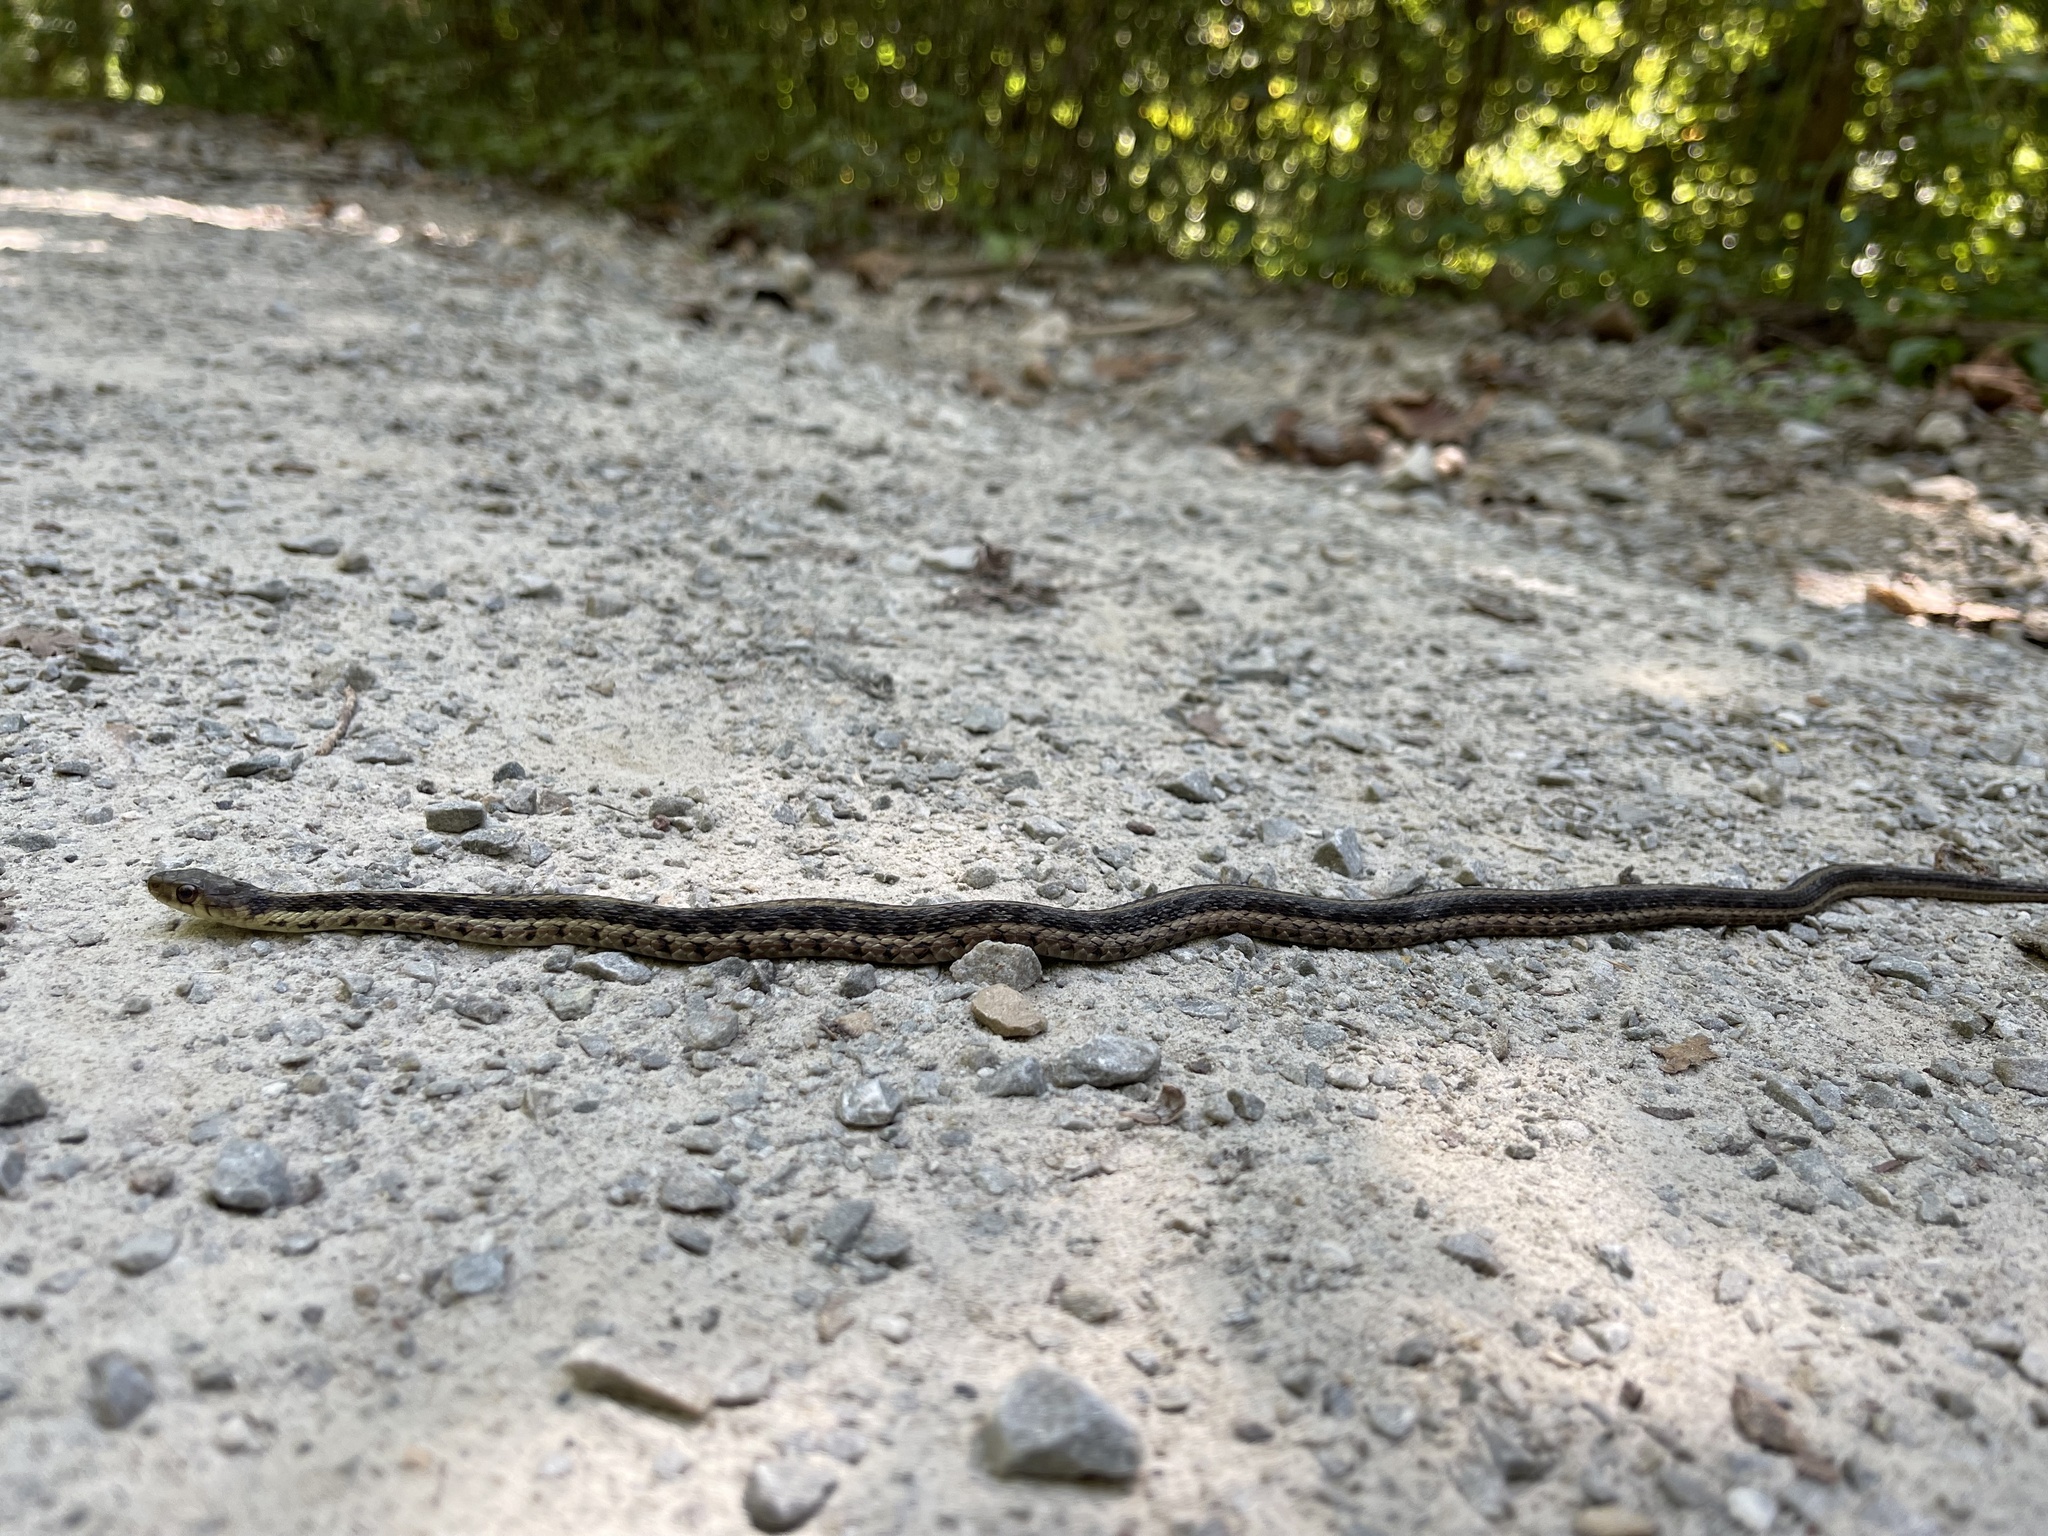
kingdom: Animalia
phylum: Chordata
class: Squamata
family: Colubridae
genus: Thamnophis
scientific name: Thamnophis sirtalis
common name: Common garter snake
